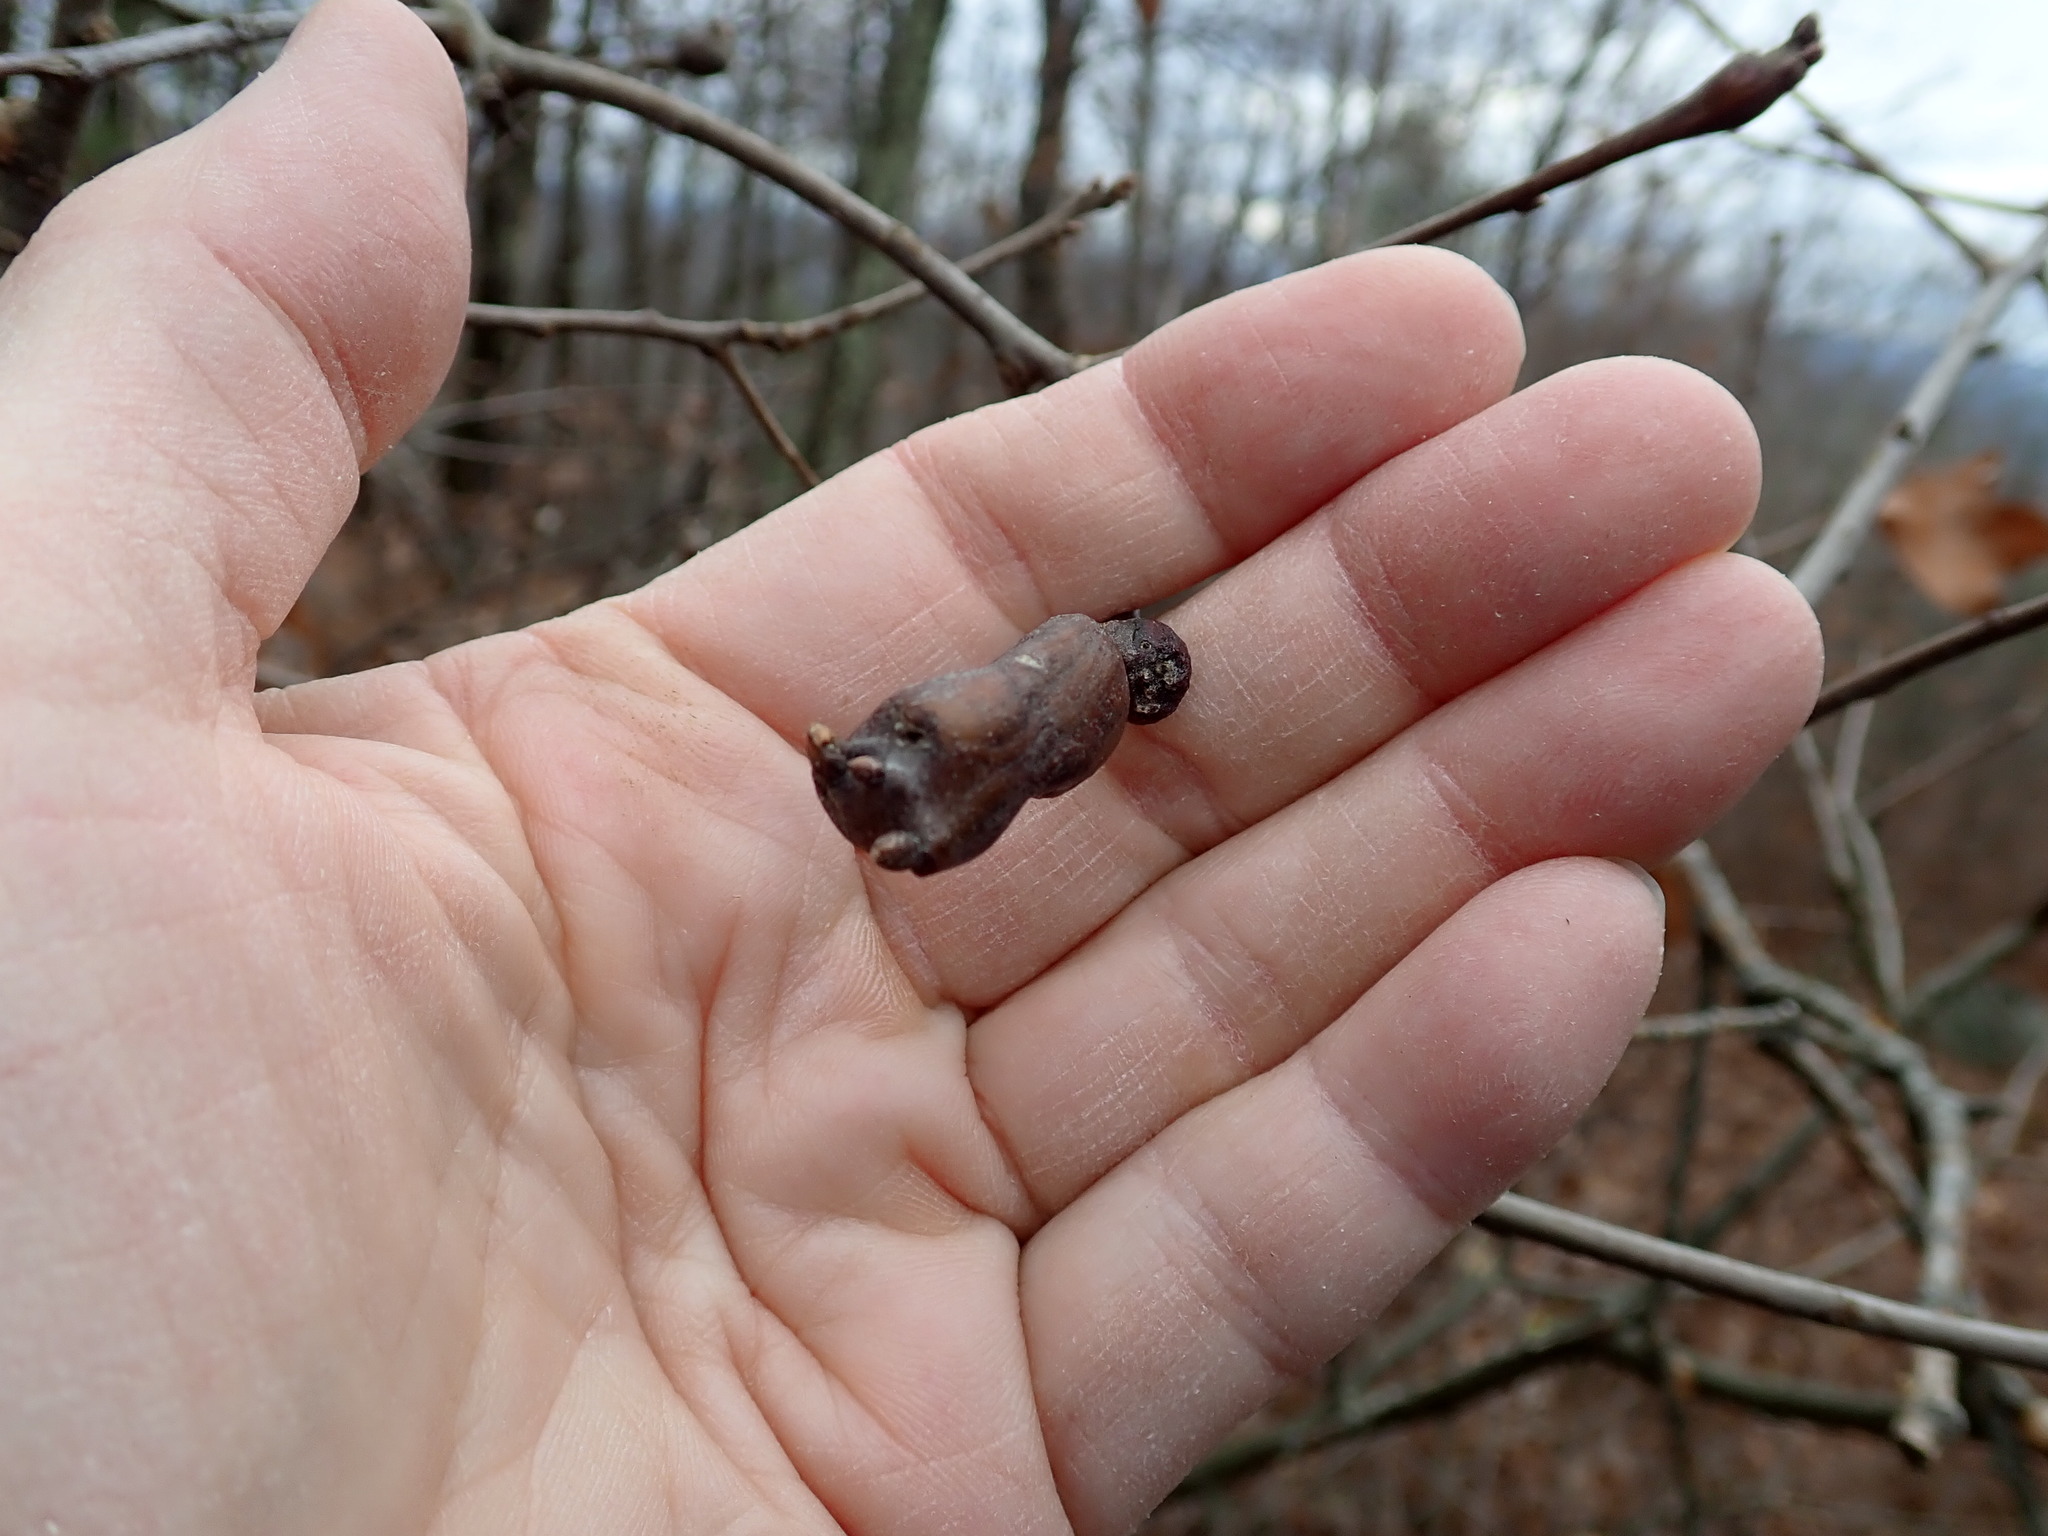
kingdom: Animalia
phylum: Arthropoda
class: Insecta
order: Hymenoptera
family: Cynipidae
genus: Zapatella
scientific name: Zapatella quercusphellos
